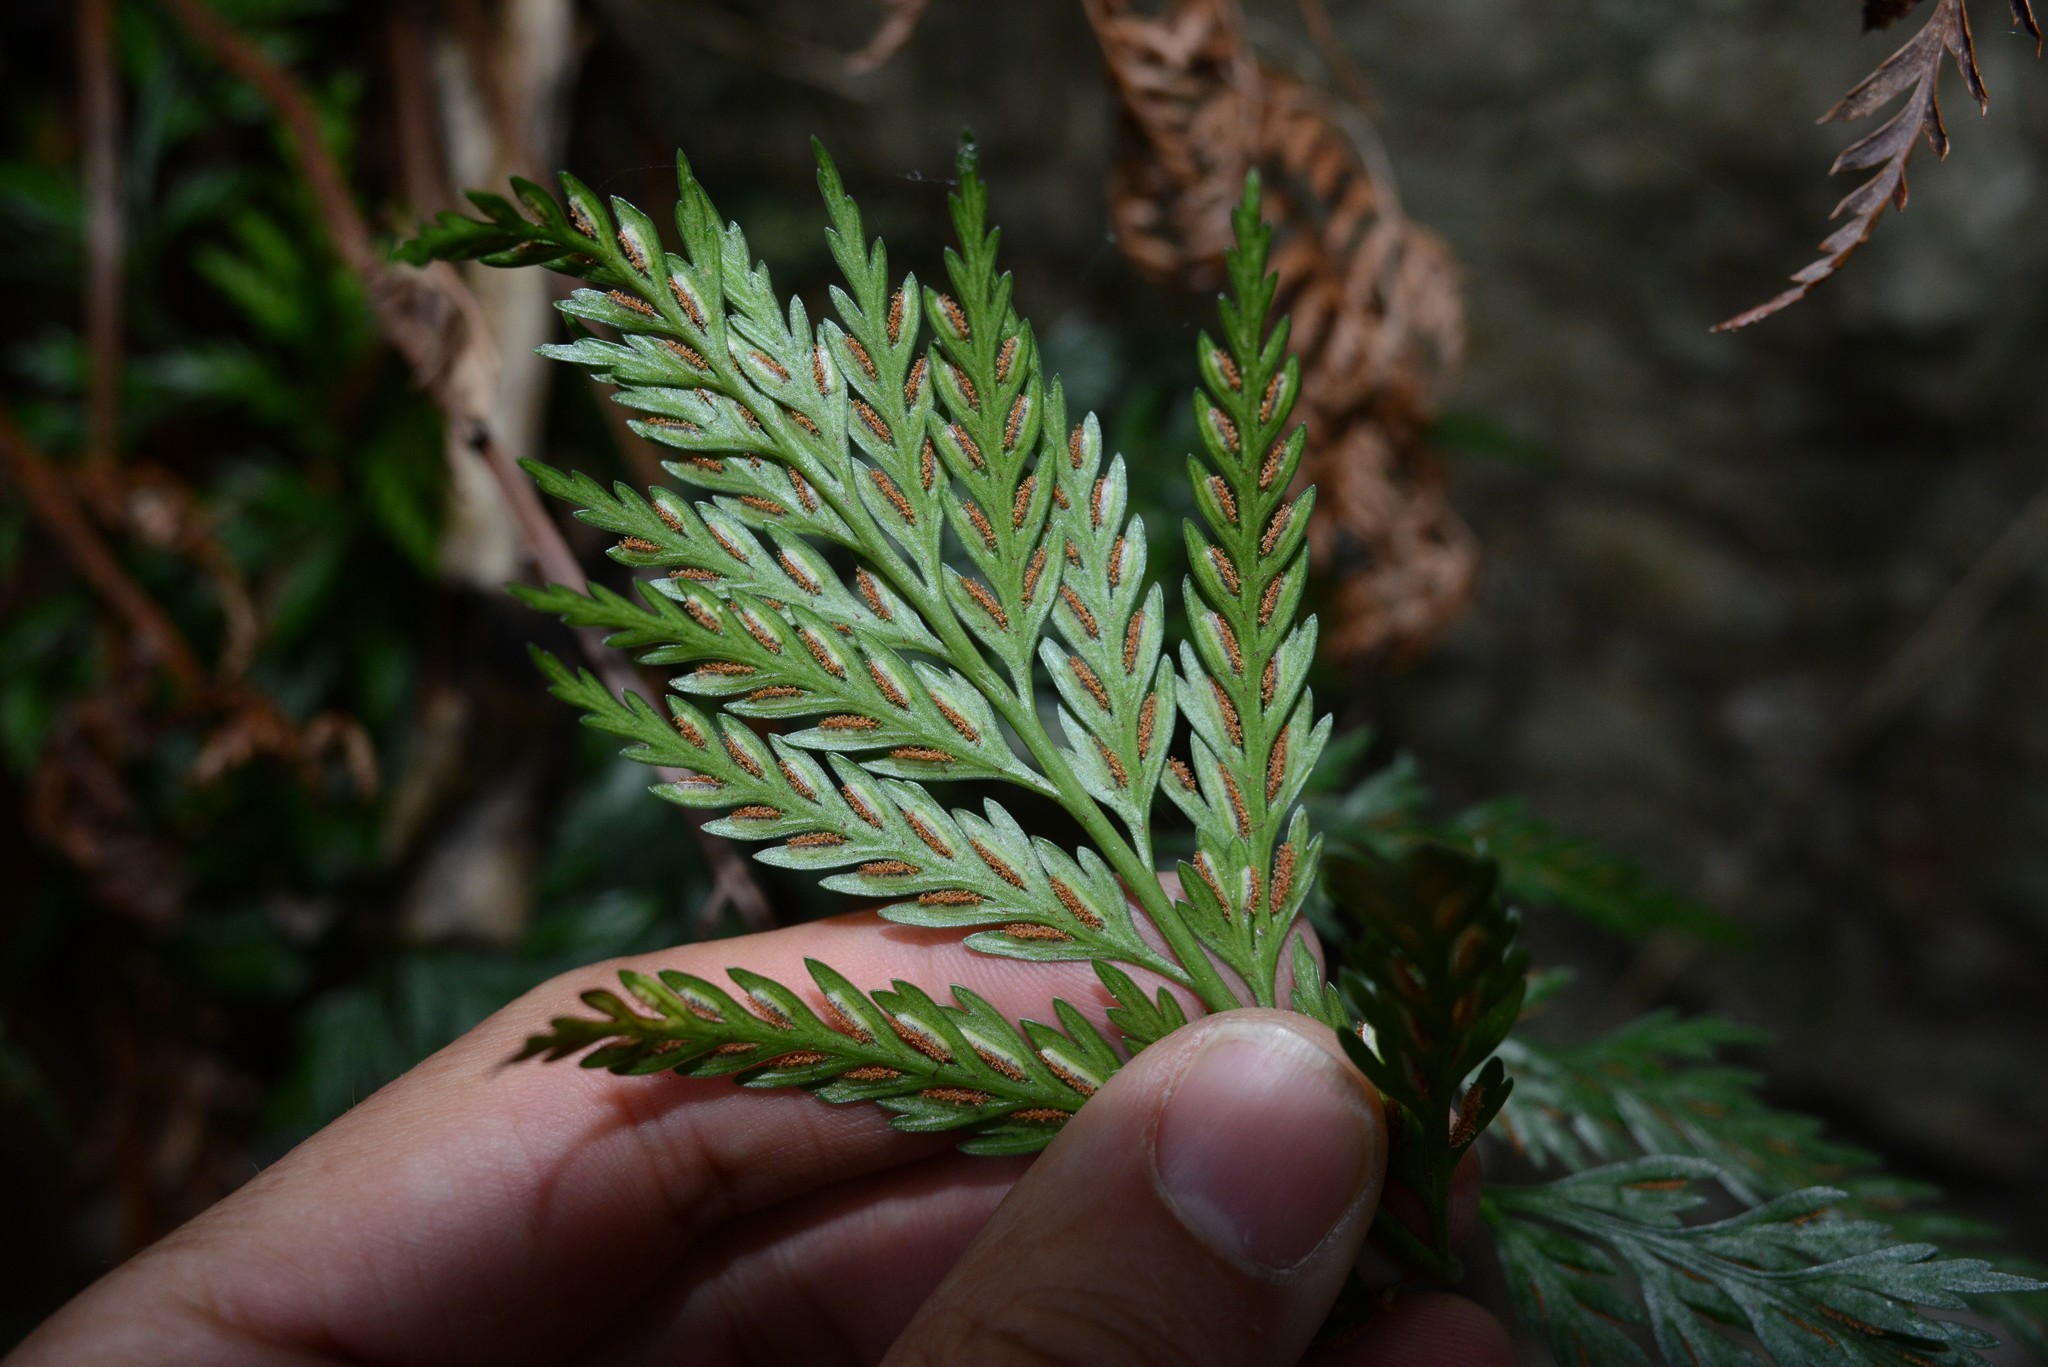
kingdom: Plantae
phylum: Tracheophyta
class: Polypodiopsida
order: Polypodiales
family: Aspleniaceae
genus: Asplenium
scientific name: Asplenium appendiculatum
